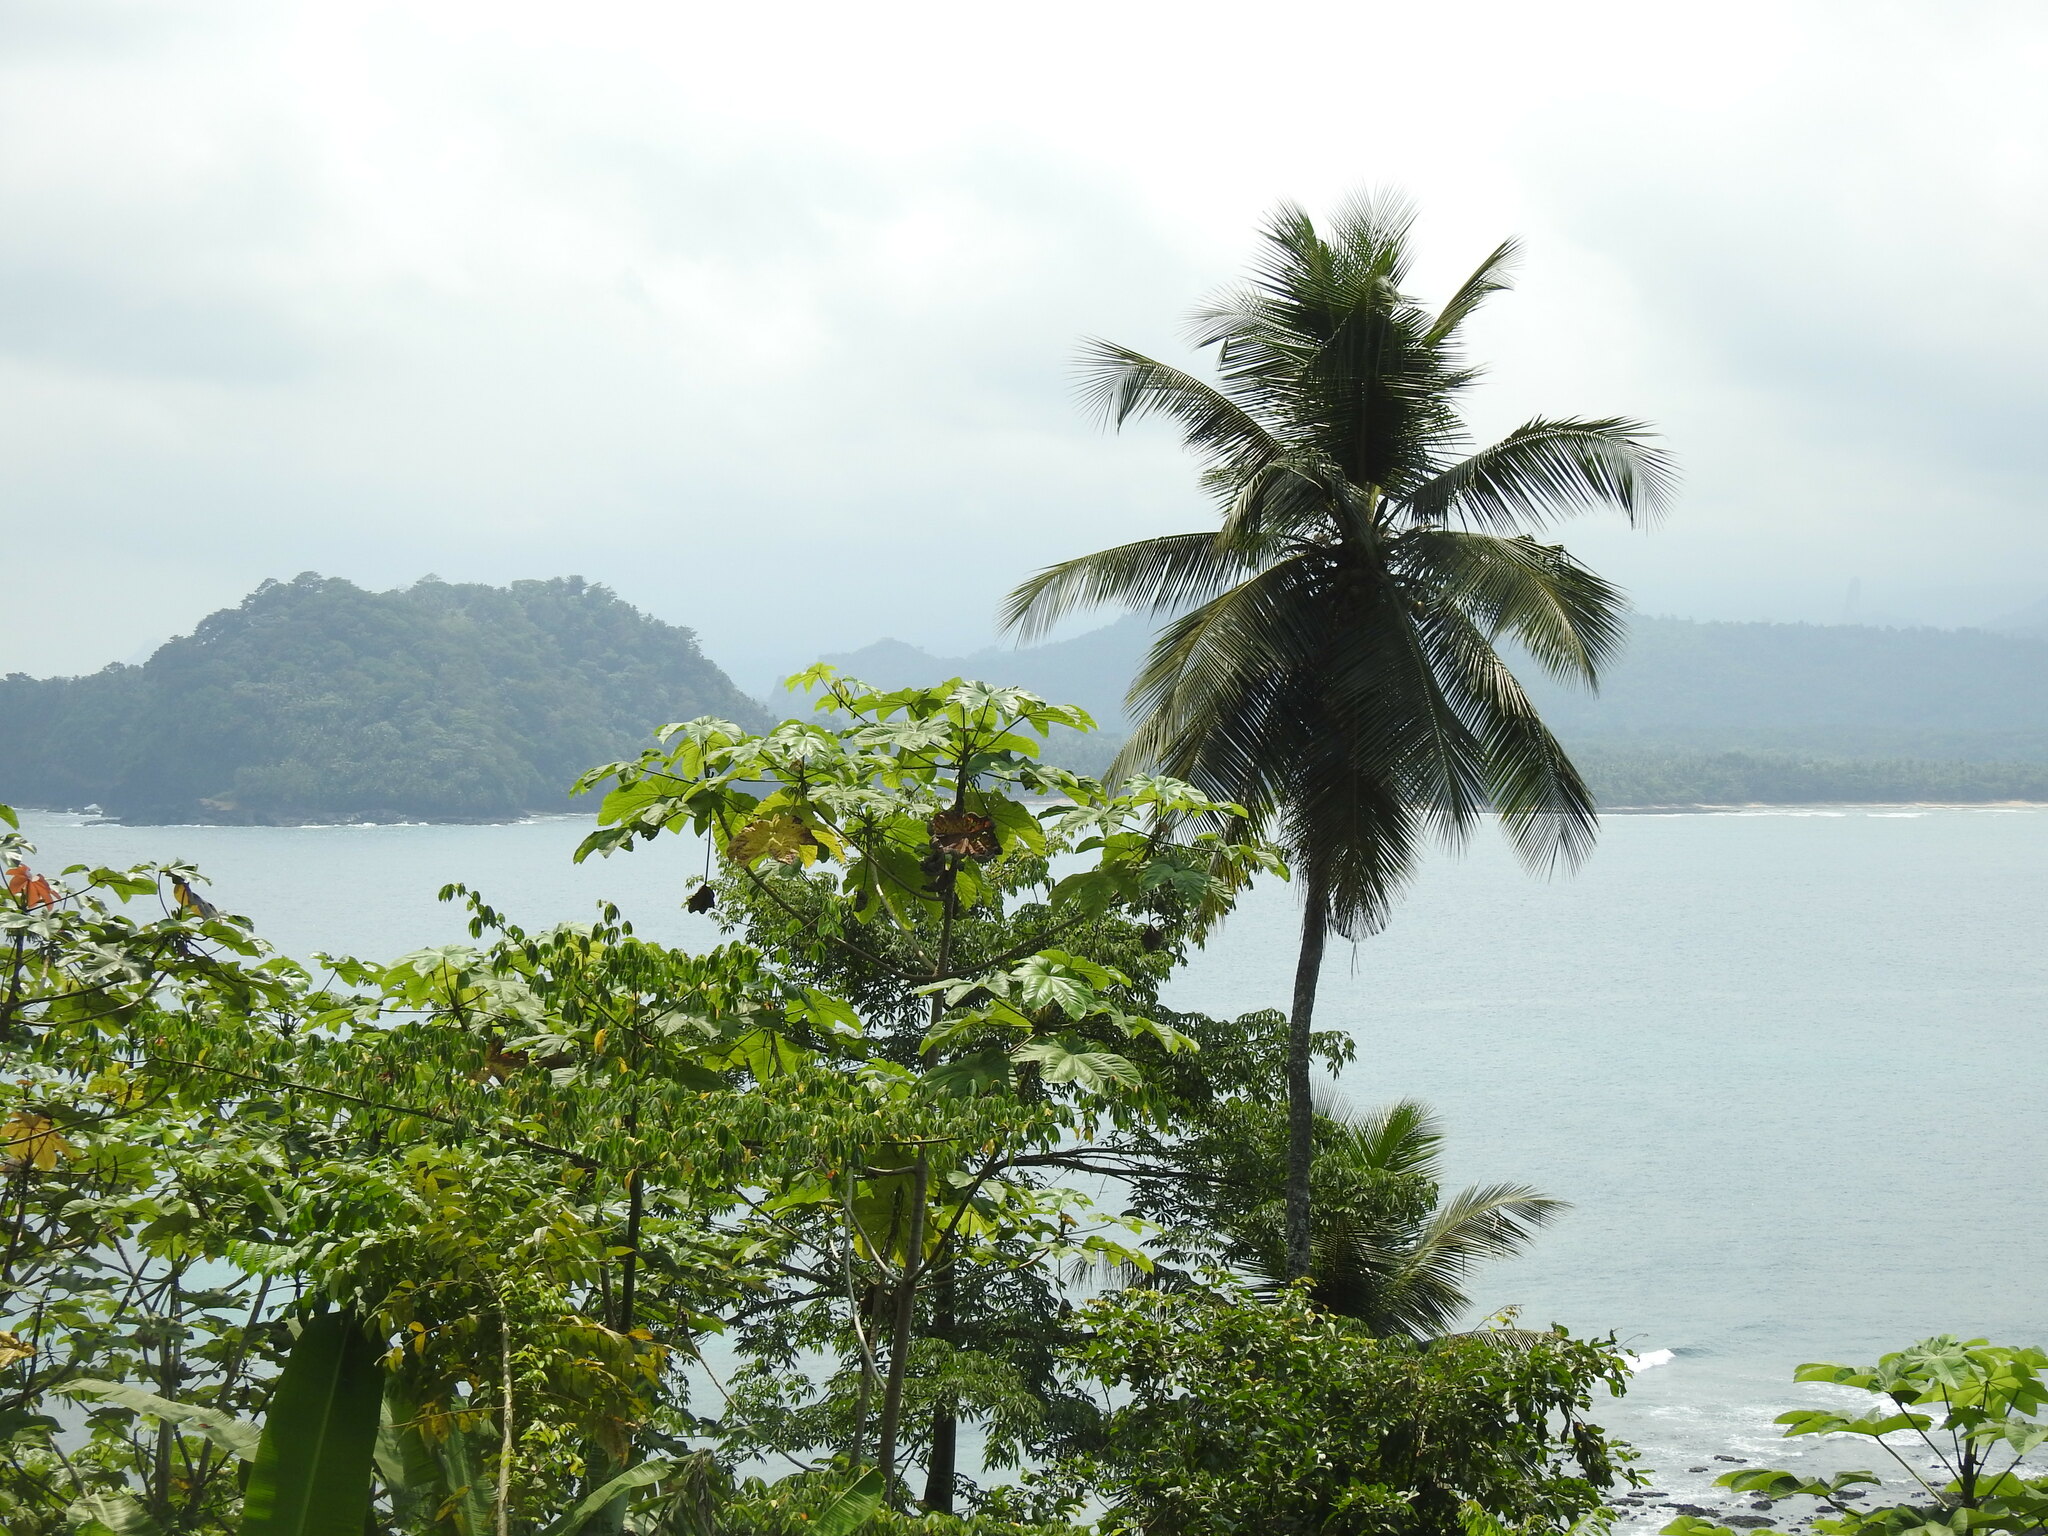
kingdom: Plantae
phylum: Tracheophyta
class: Magnoliopsida
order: Rosales
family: Urticaceae
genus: Cecropia
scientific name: Cecropia peltata
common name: Trumpet-tree
